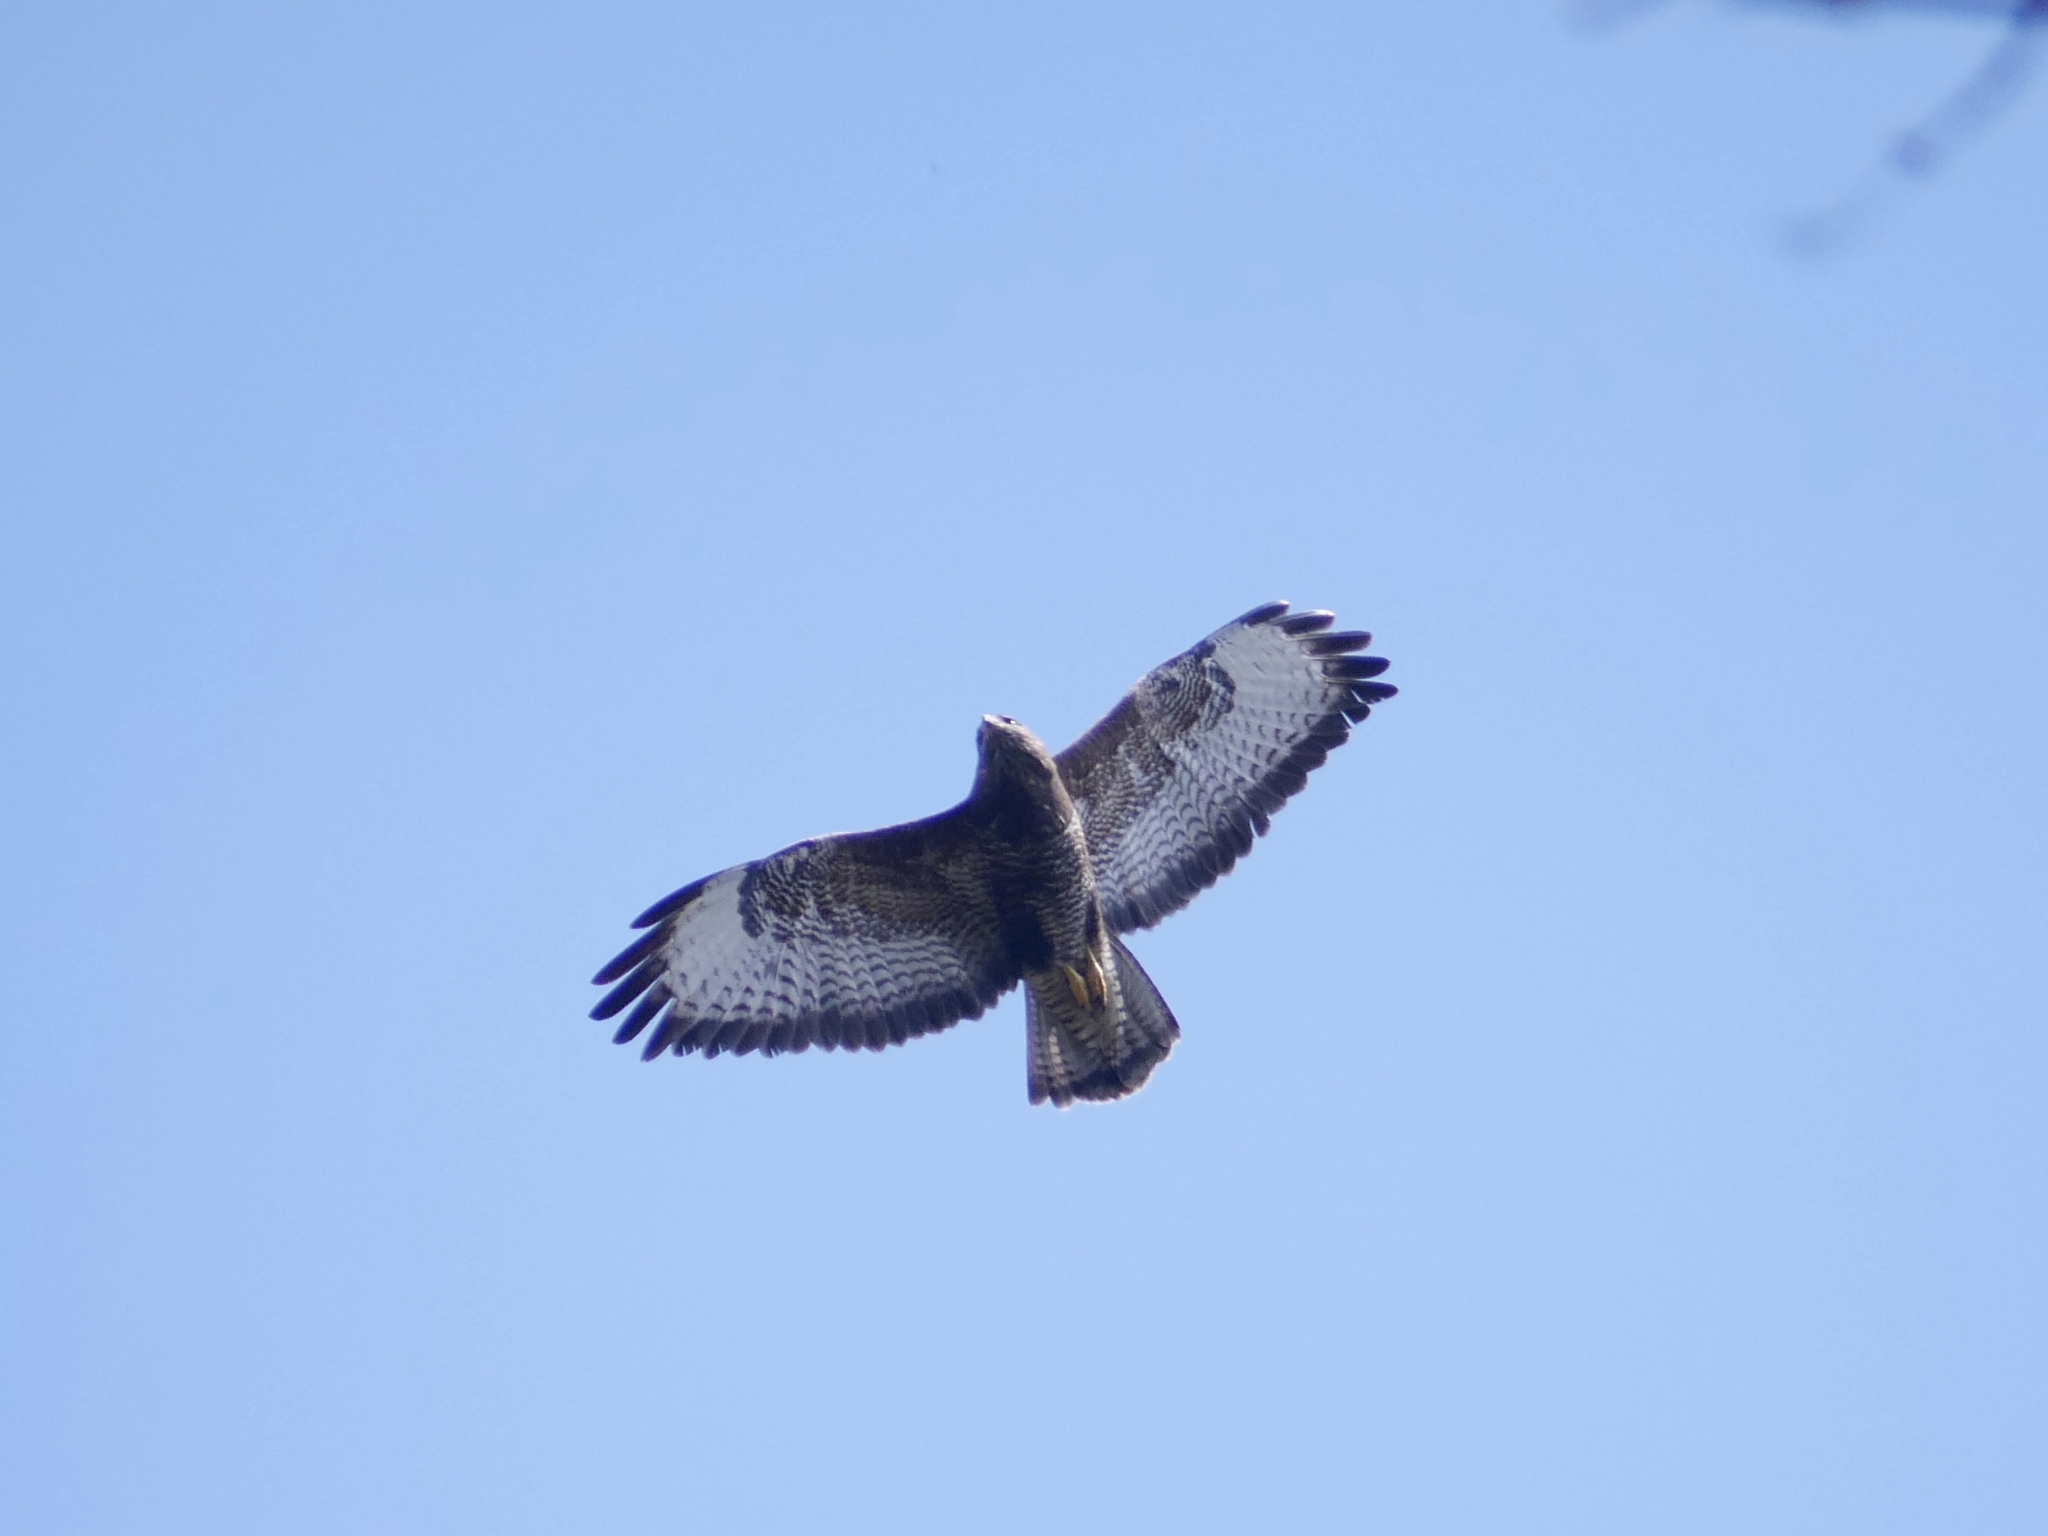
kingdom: Animalia
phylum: Chordata
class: Aves
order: Accipitriformes
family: Accipitridae
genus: Buteo
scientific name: Buteo buteo
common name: Common buzzard
